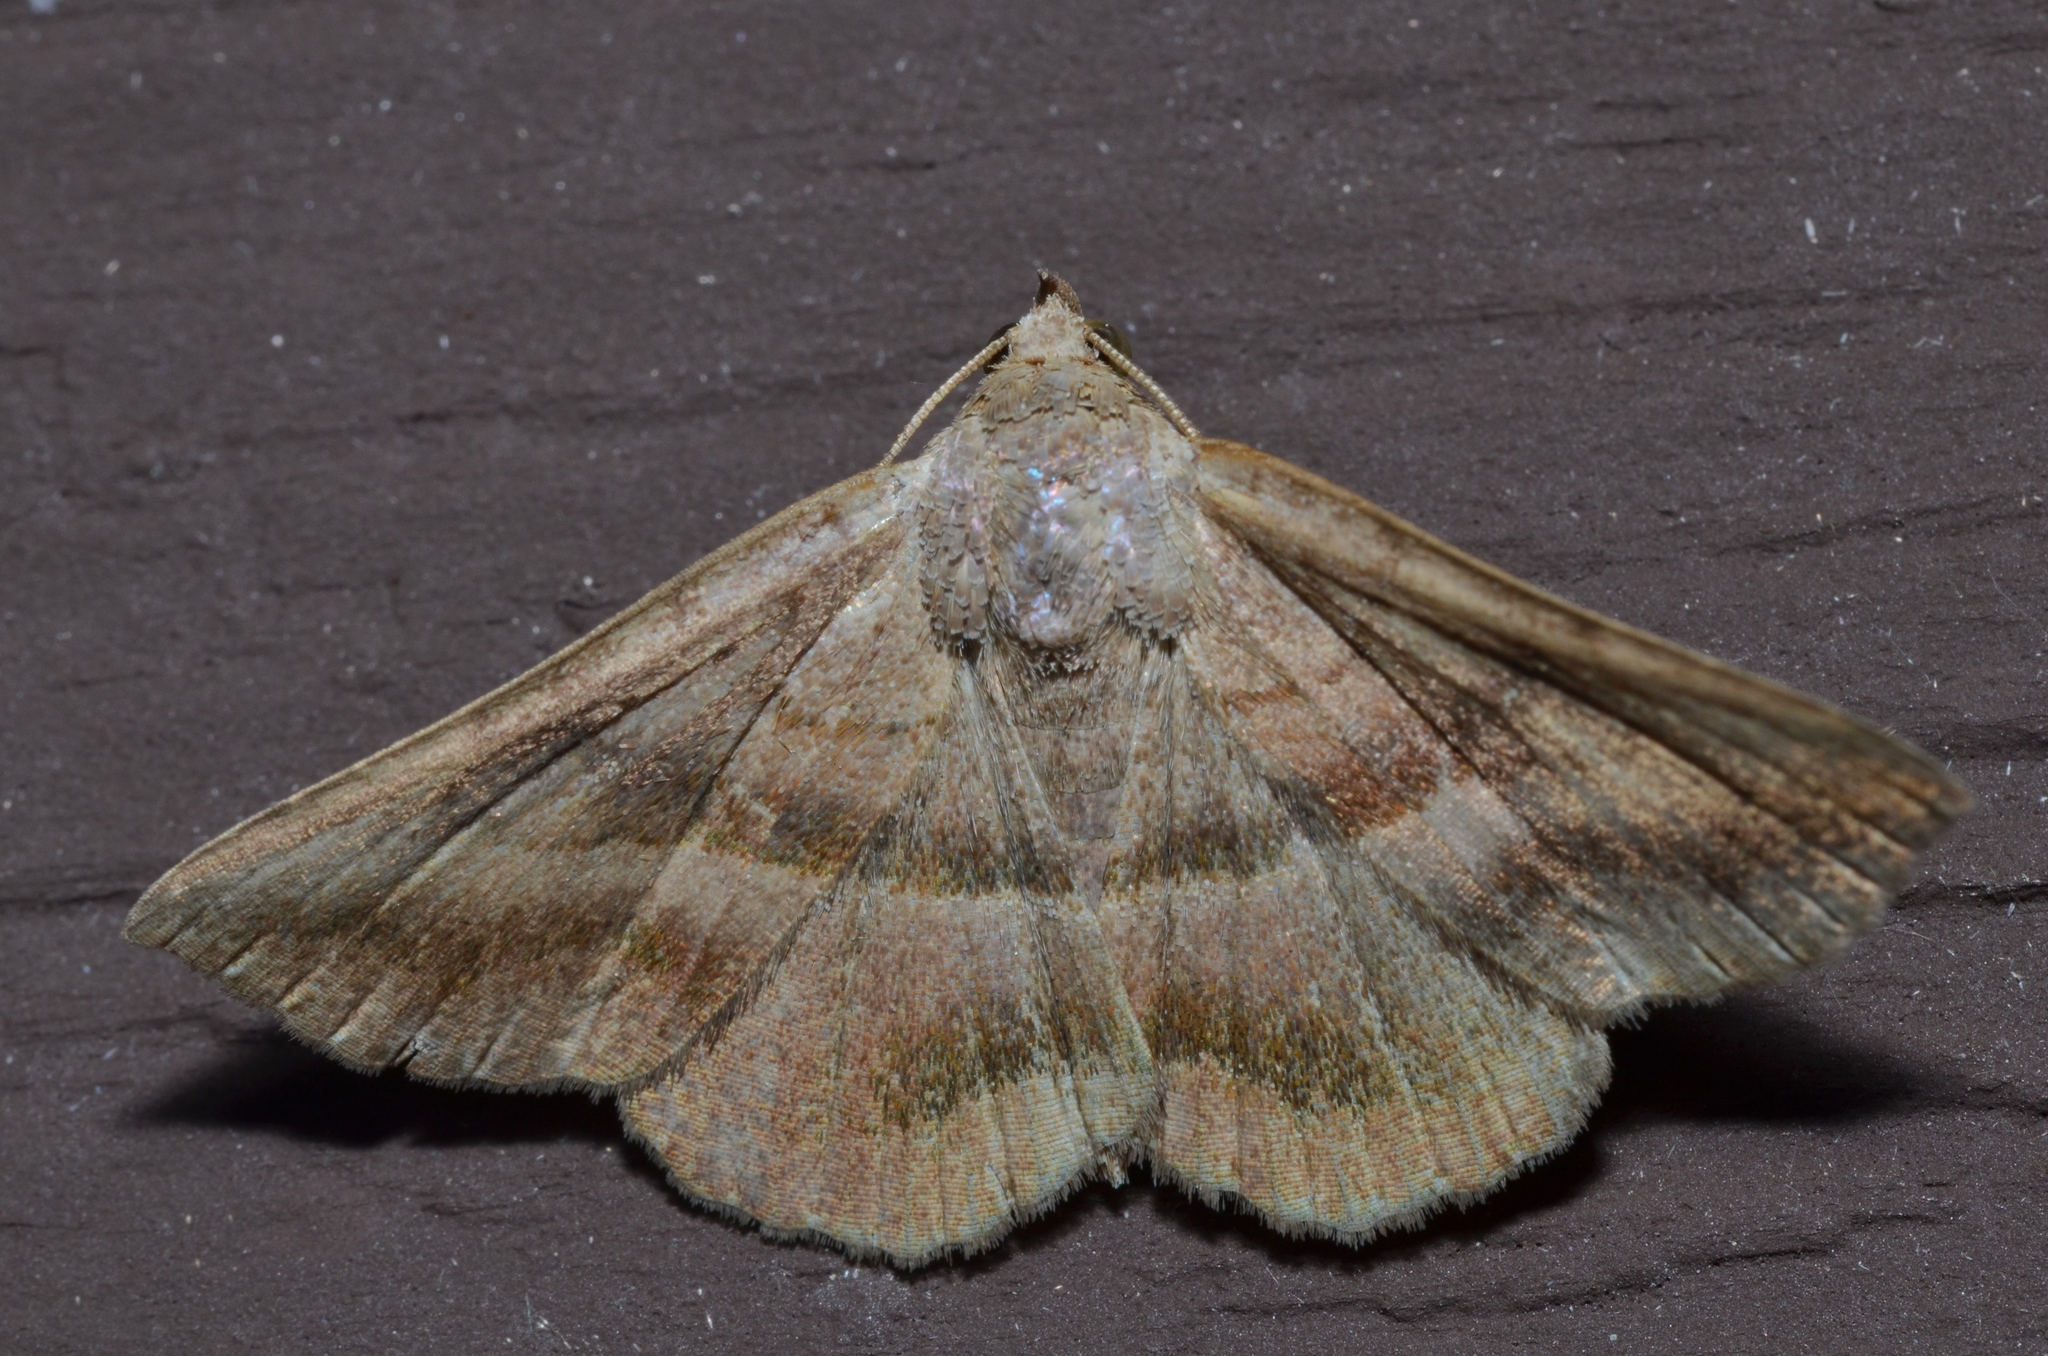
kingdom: Animalia
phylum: Arthropoda
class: Insecta
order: Lepidoptera
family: Erebidae
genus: Lesmone
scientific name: Lesmone detrahens
